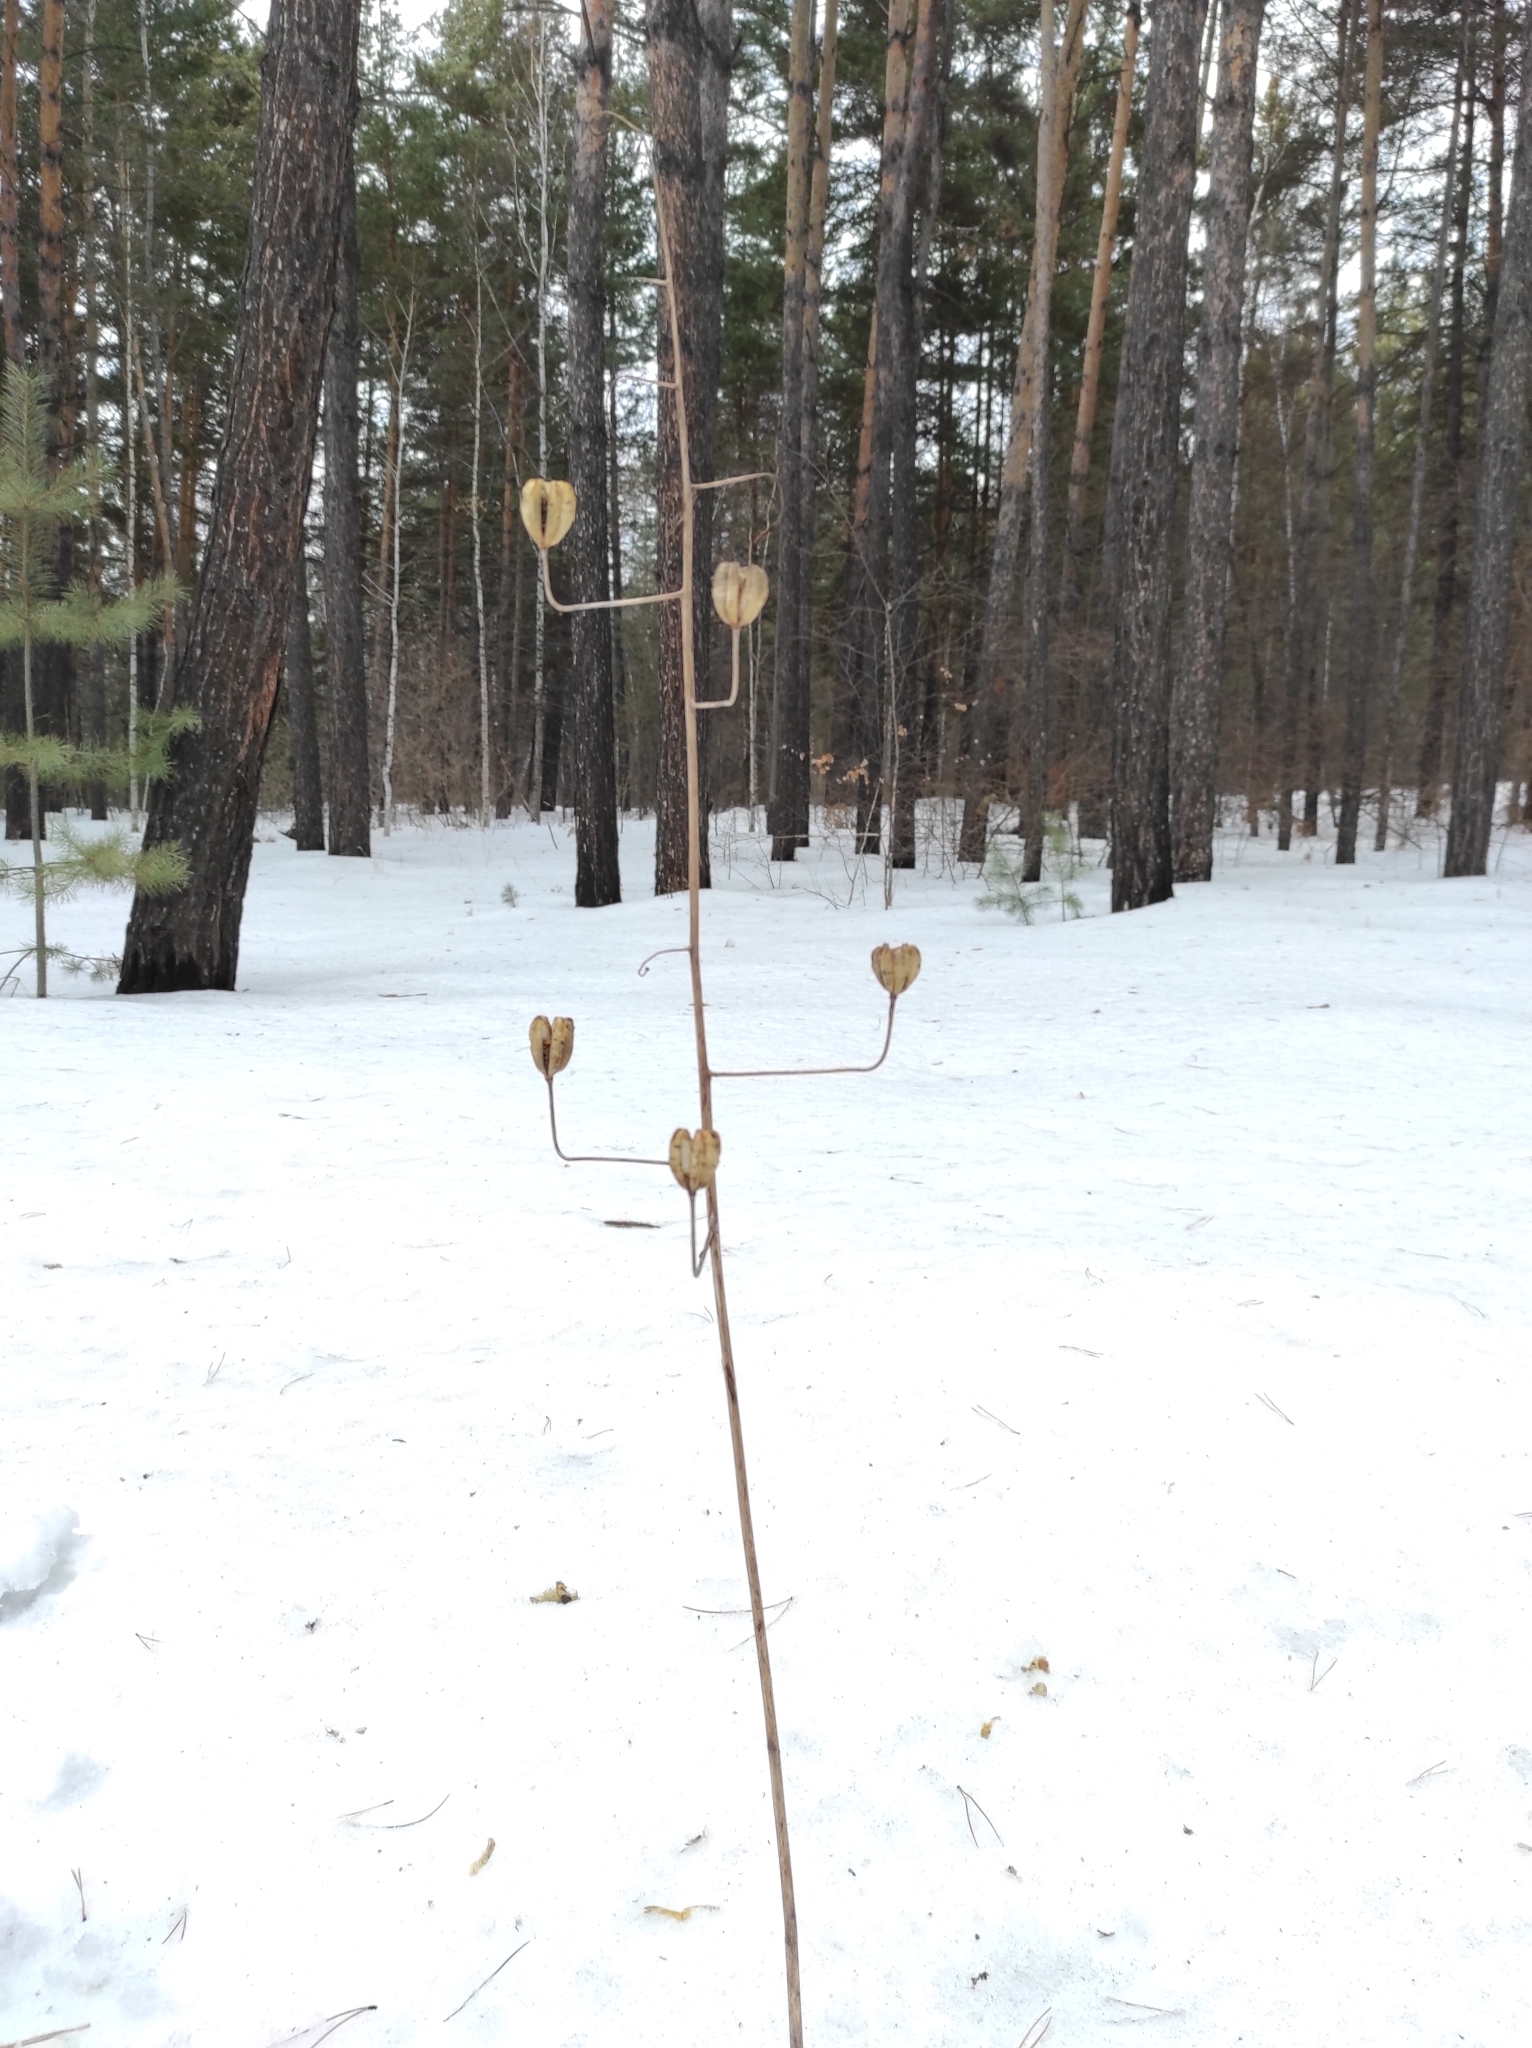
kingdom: Plantae
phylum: Tracheophyta
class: Liliopsida
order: Liliales
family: Liliaceae
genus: Lilium
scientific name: Lilium martagon
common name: Martagon lily
